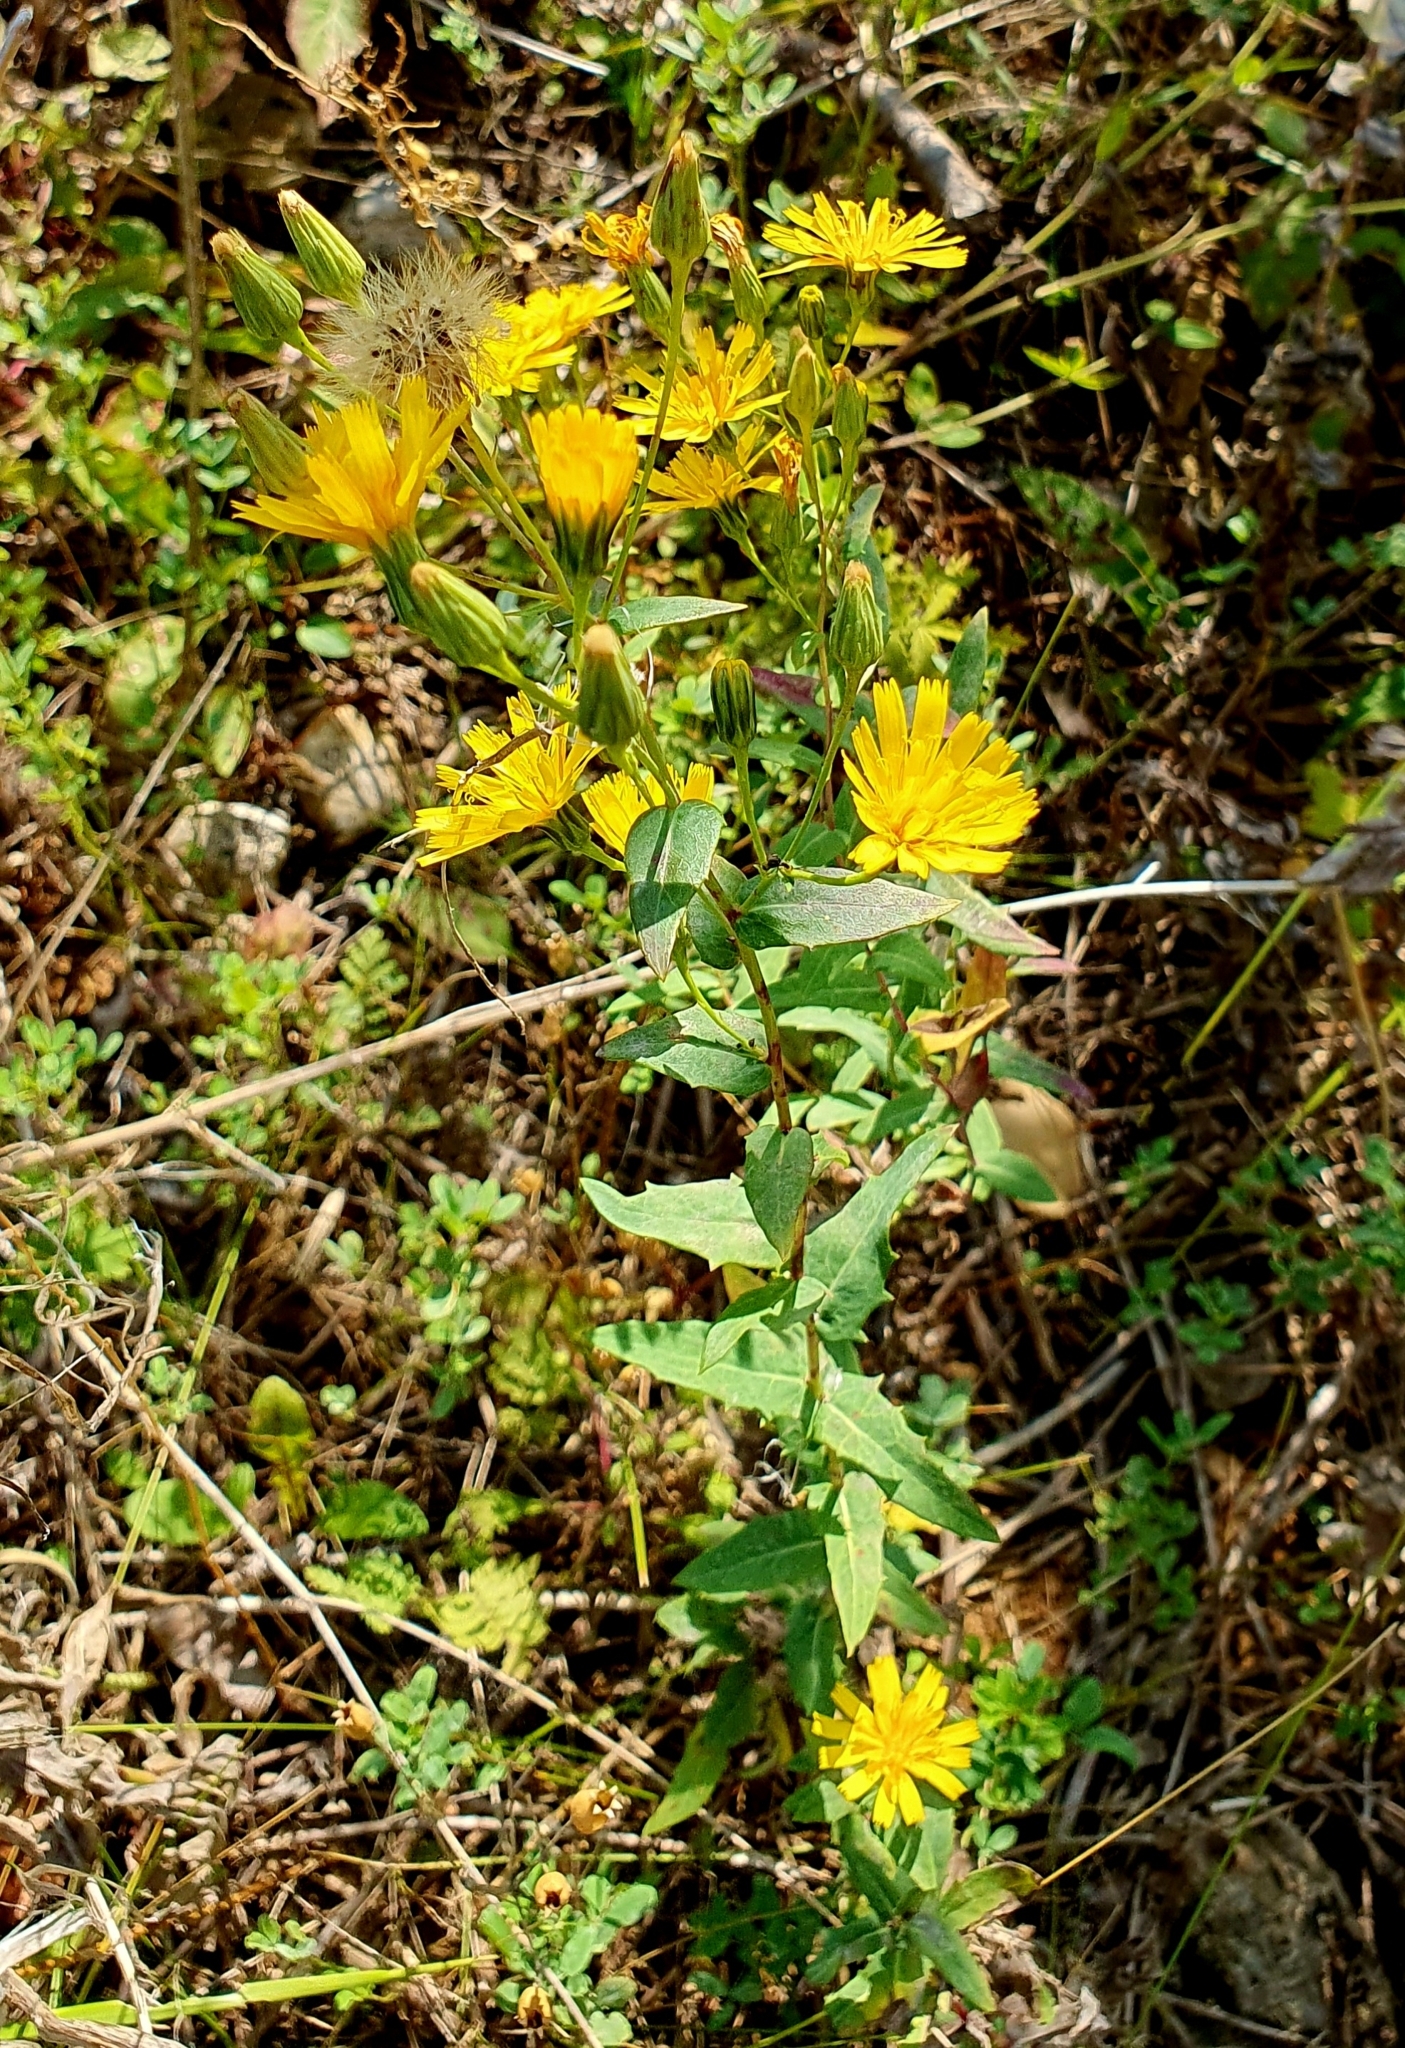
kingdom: Plantae
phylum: Tracheophyta
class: Magnoliopsida
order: Asterales
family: Asteraceae
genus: Hieracium
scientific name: Hieracium virosum
